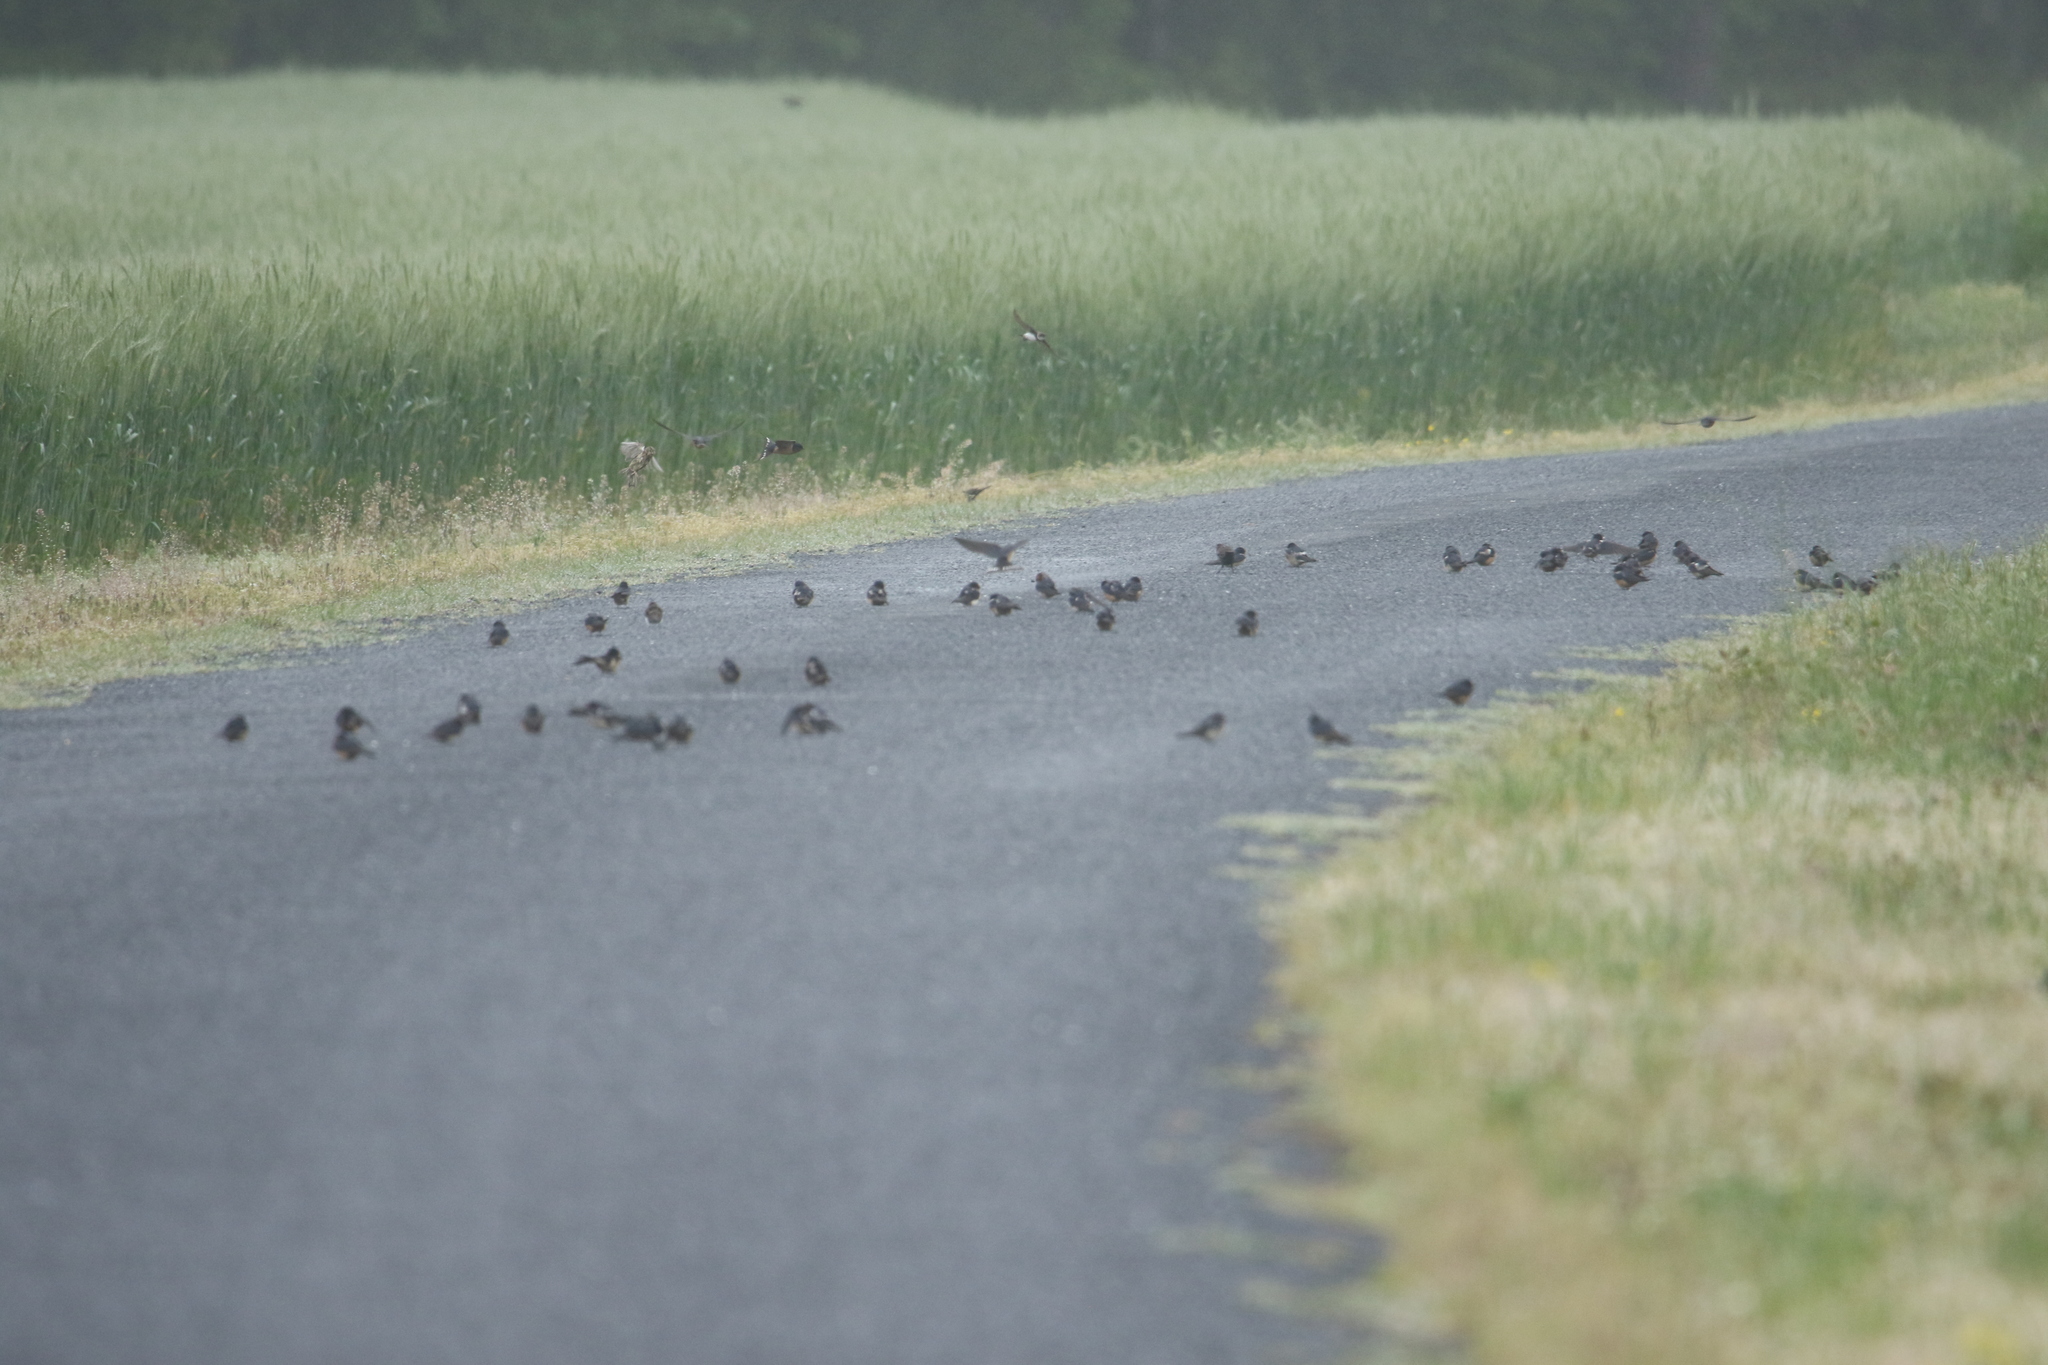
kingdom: Animalia
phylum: Chordata
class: Aves
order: Passeriformes
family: Hirundinidae
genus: Hirundo
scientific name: Hirundo rustica
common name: Barn swallow
